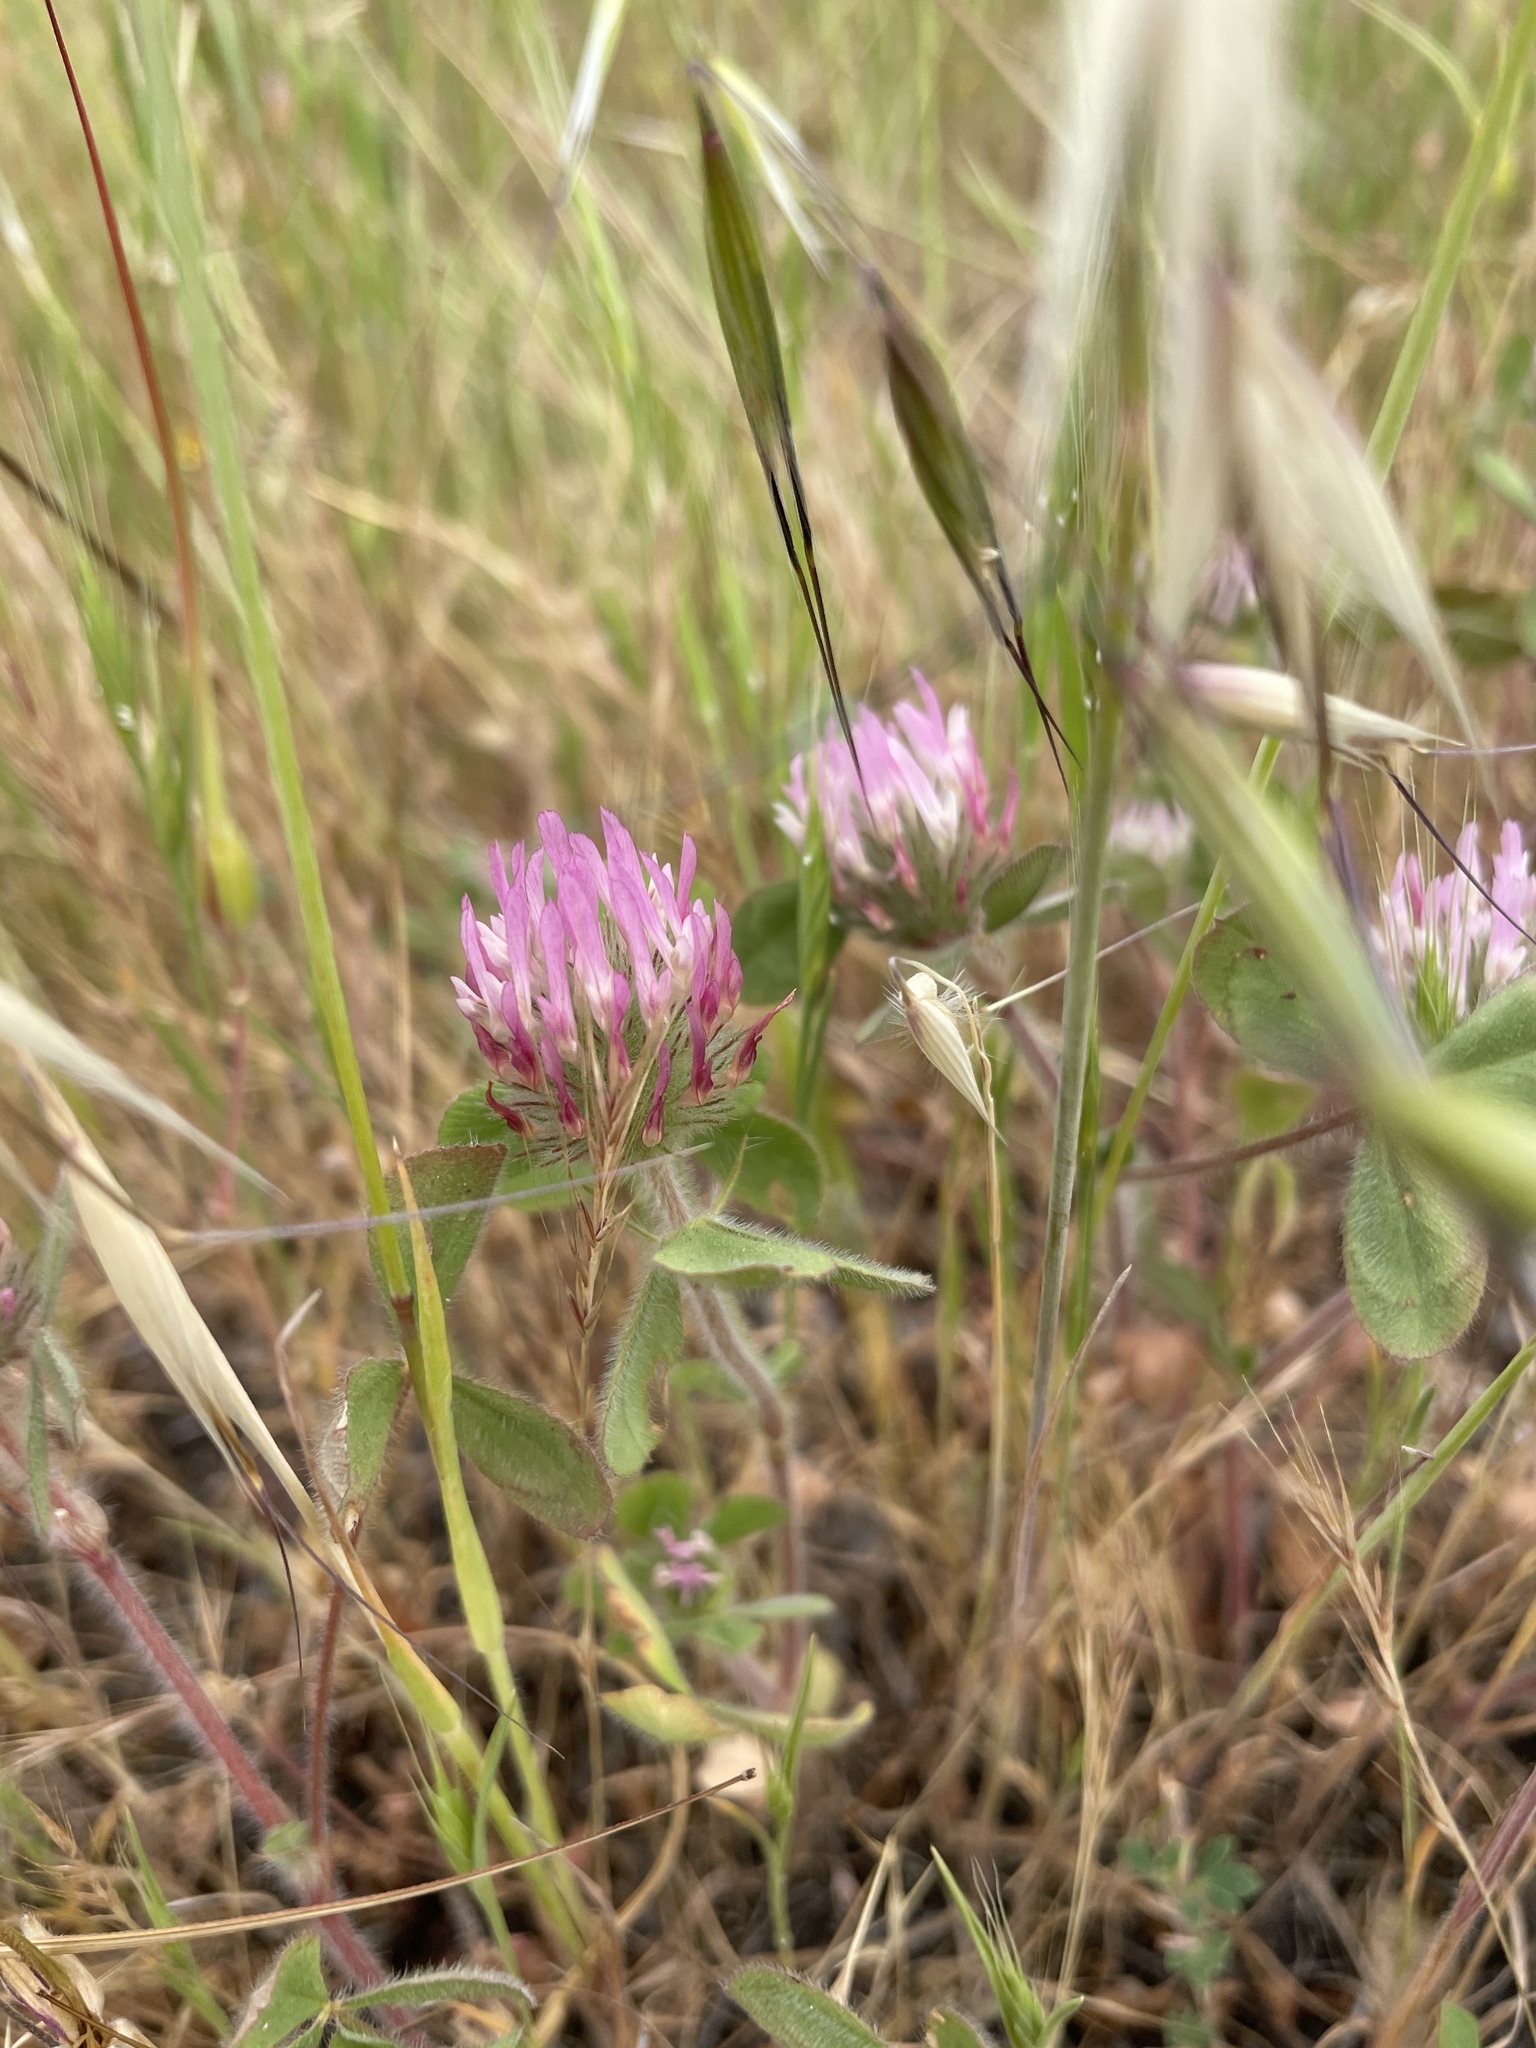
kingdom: Plantae
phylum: Tracheophyta
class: Magnoliopsida
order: Fabales
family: Fabaceae
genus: Trifolium
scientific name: Trifolium hirtum
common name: Rose clover
